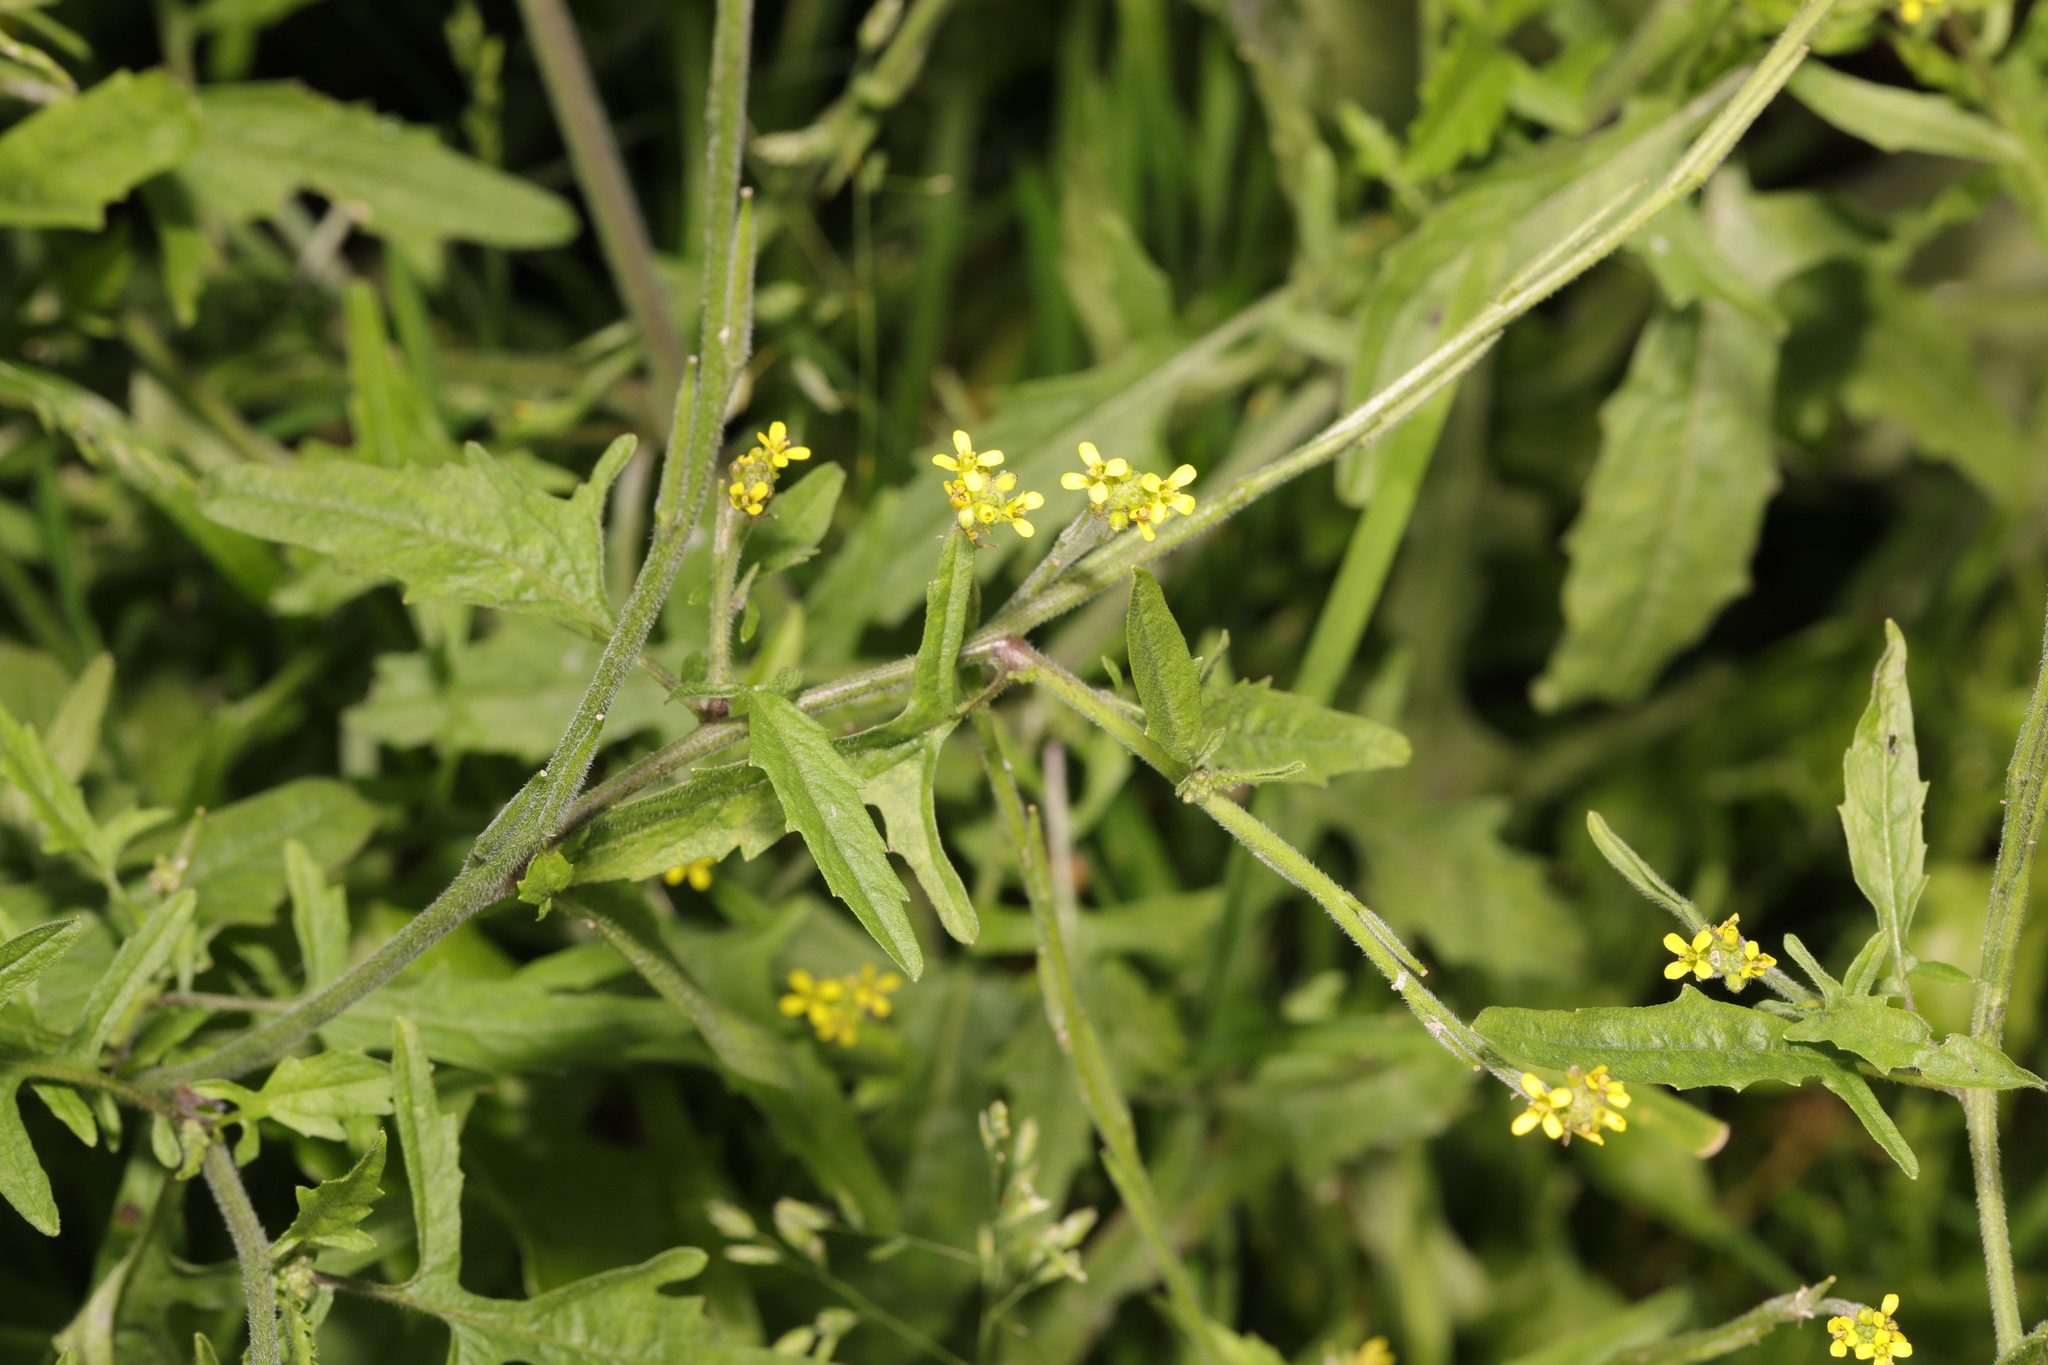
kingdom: Plantae
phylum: Tracheophyta
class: Magnoliopsida
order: Brassicales
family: Brassicaceae
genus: Sisymbrium
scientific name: Sisymbrium officinale
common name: Hedge mustard
